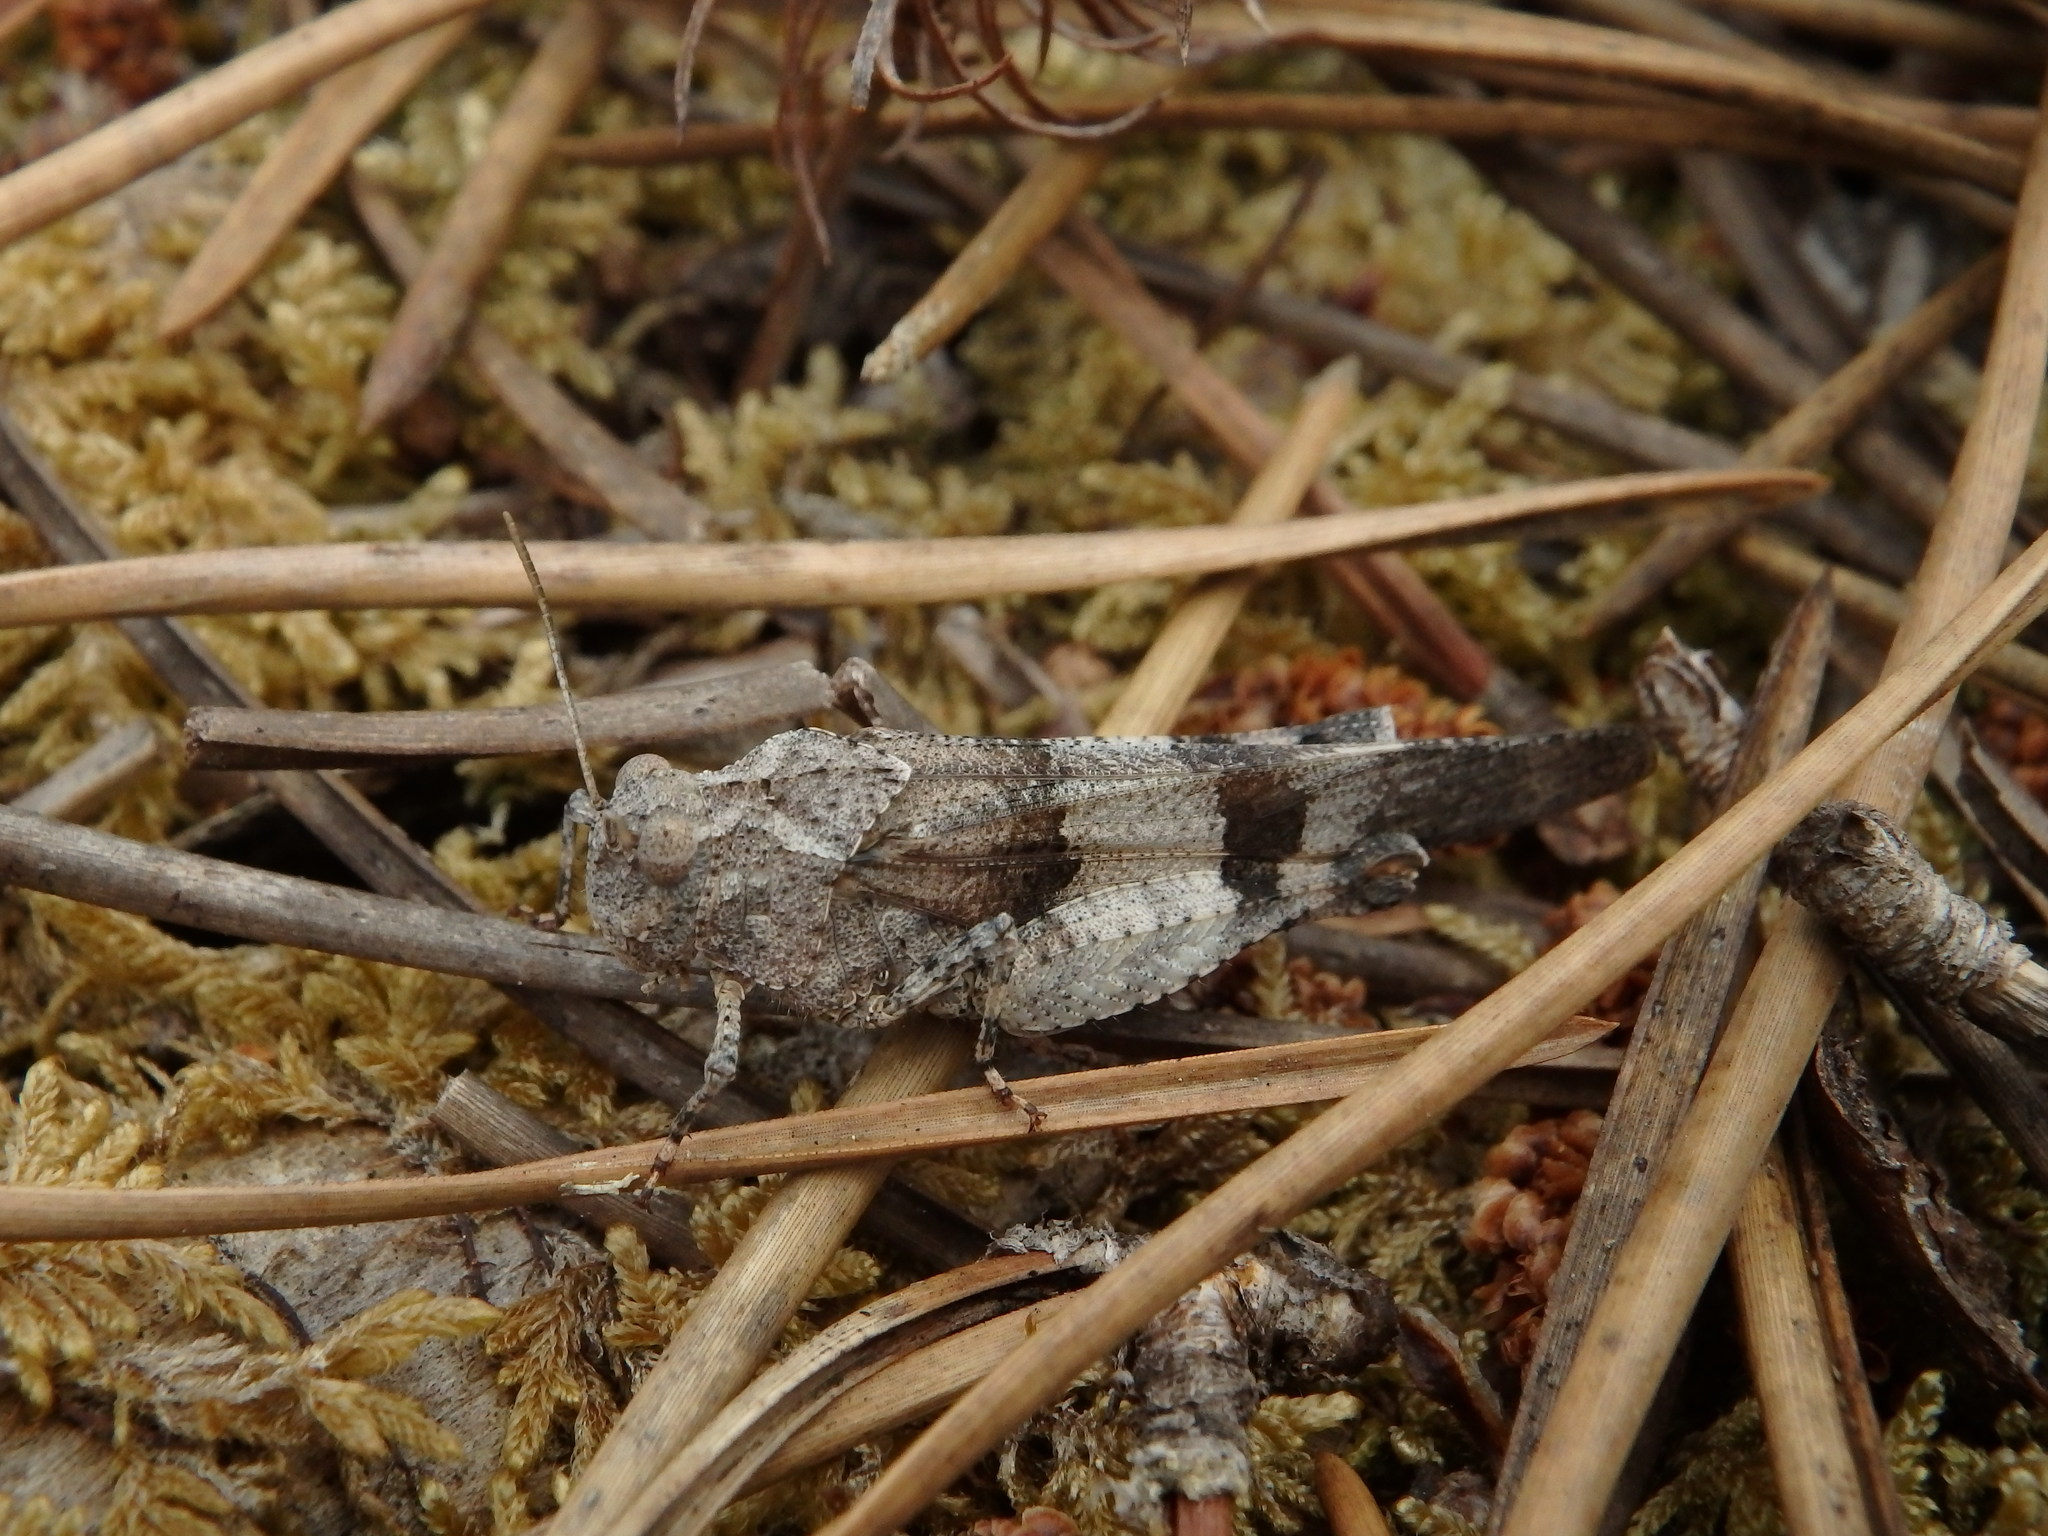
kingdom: Animalia
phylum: Arthropoda
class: Insecta
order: Orthoptera
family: Acrididae
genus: Oedipoda
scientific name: Oedipoda caerulescens
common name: Blue-winged grasshopper
